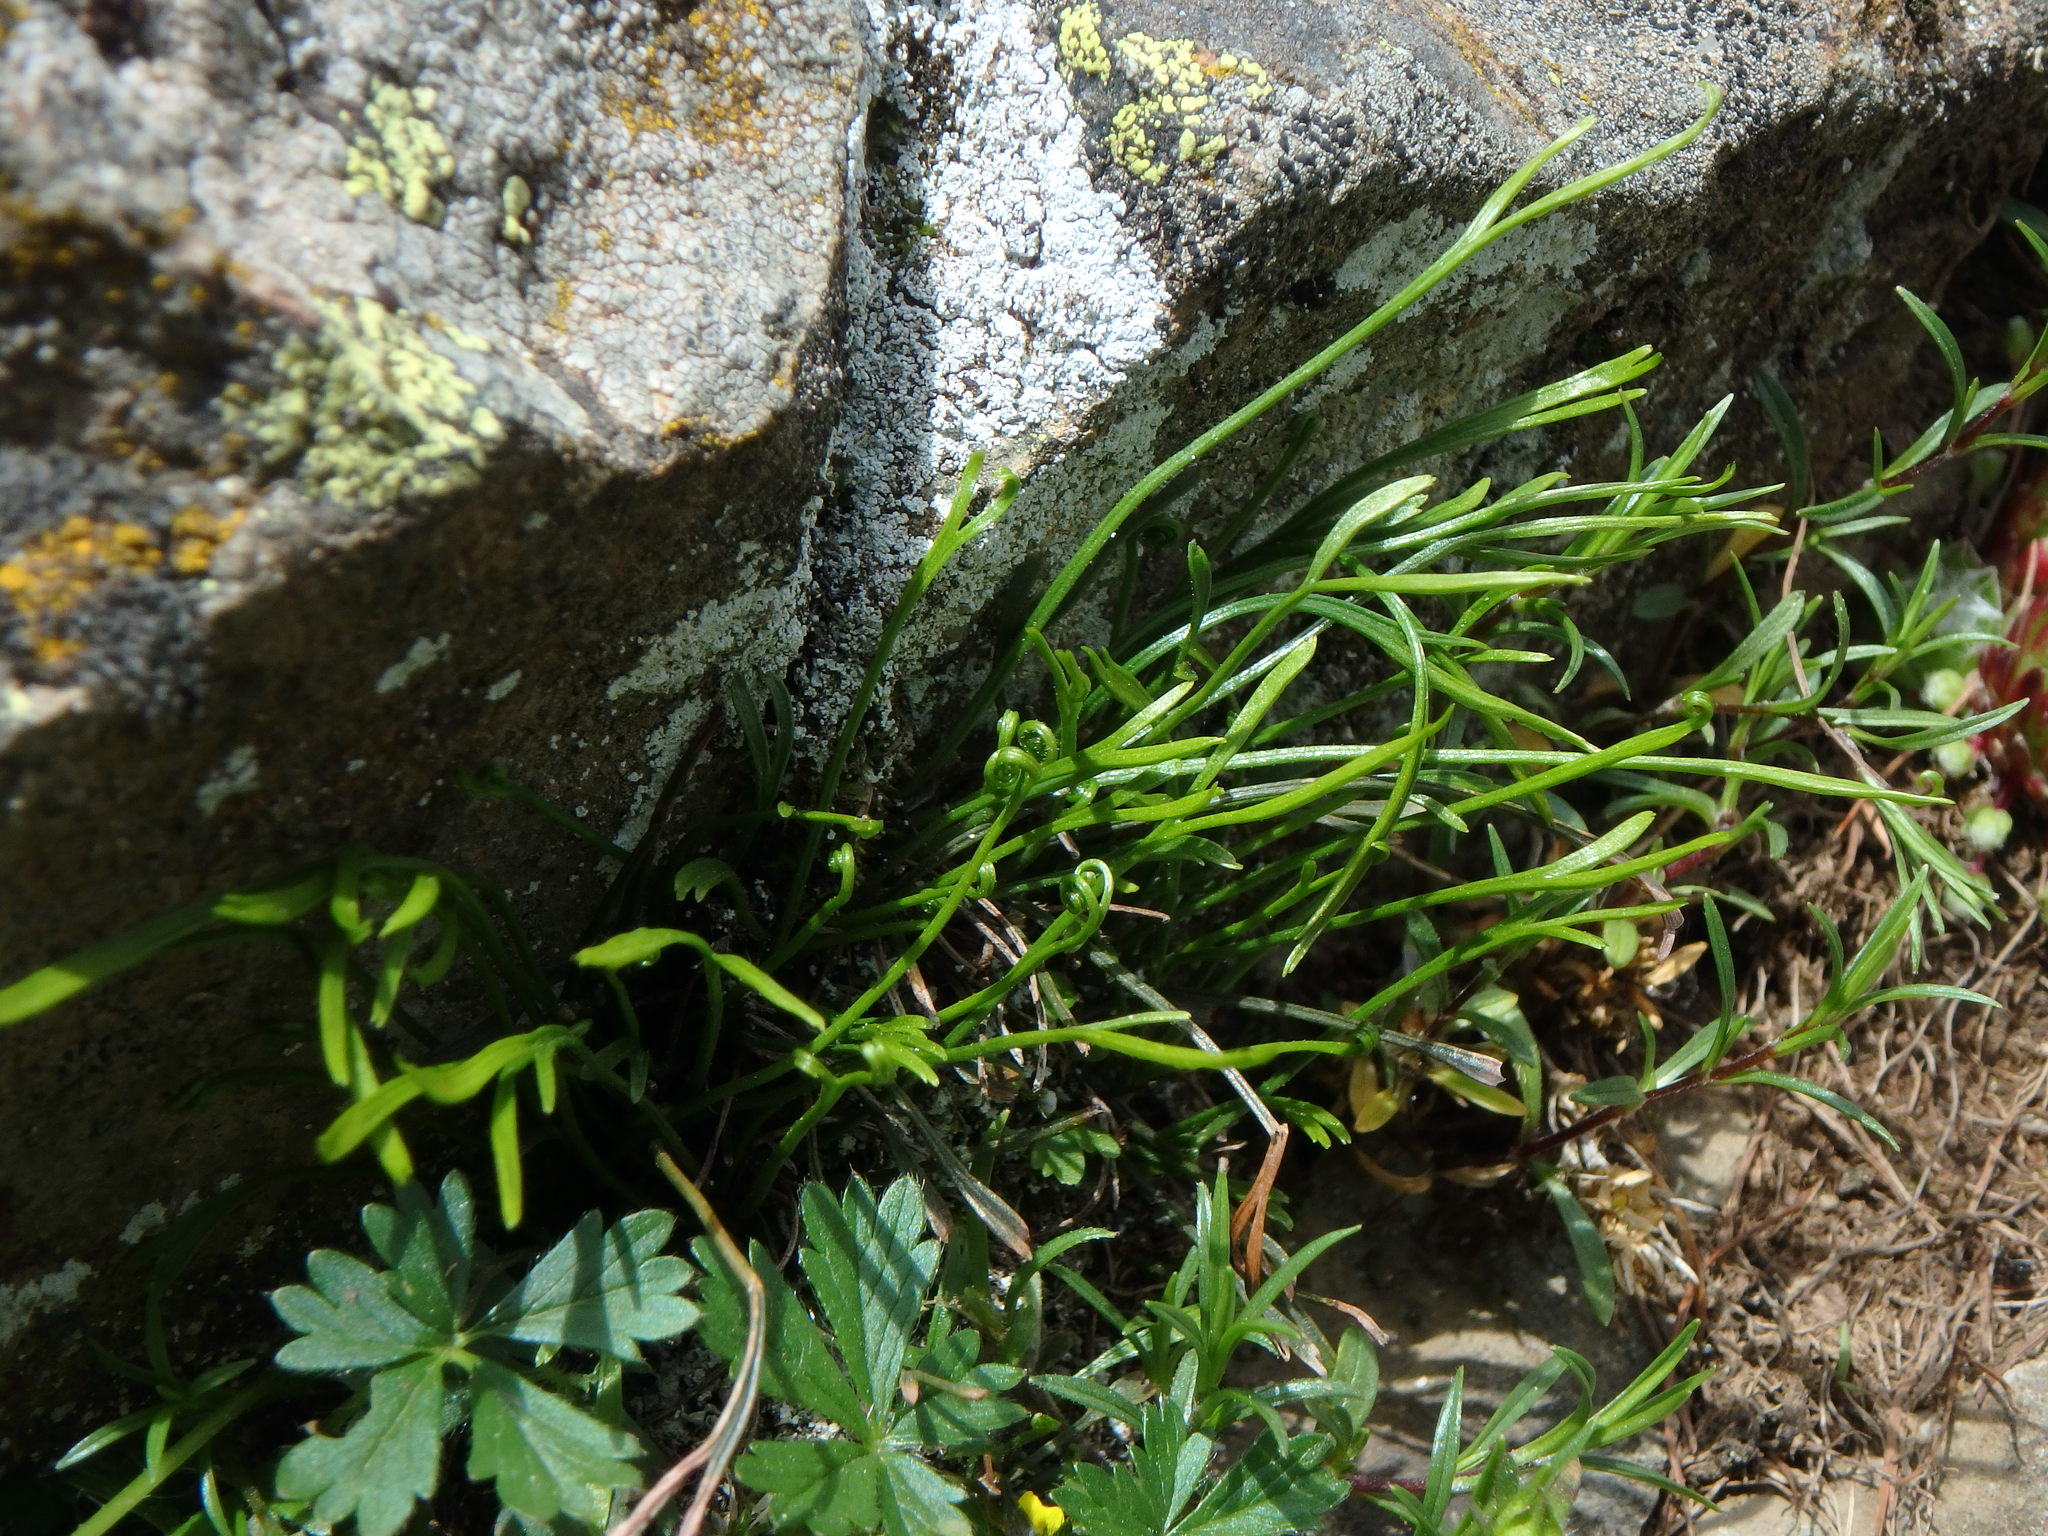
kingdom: Plantae
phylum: Tracheophyta
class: Polypodiopsida
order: Polypodiales
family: Aspleniaceae
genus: Asplenium
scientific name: Asplenium septentrionale
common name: Forked spleenwort
